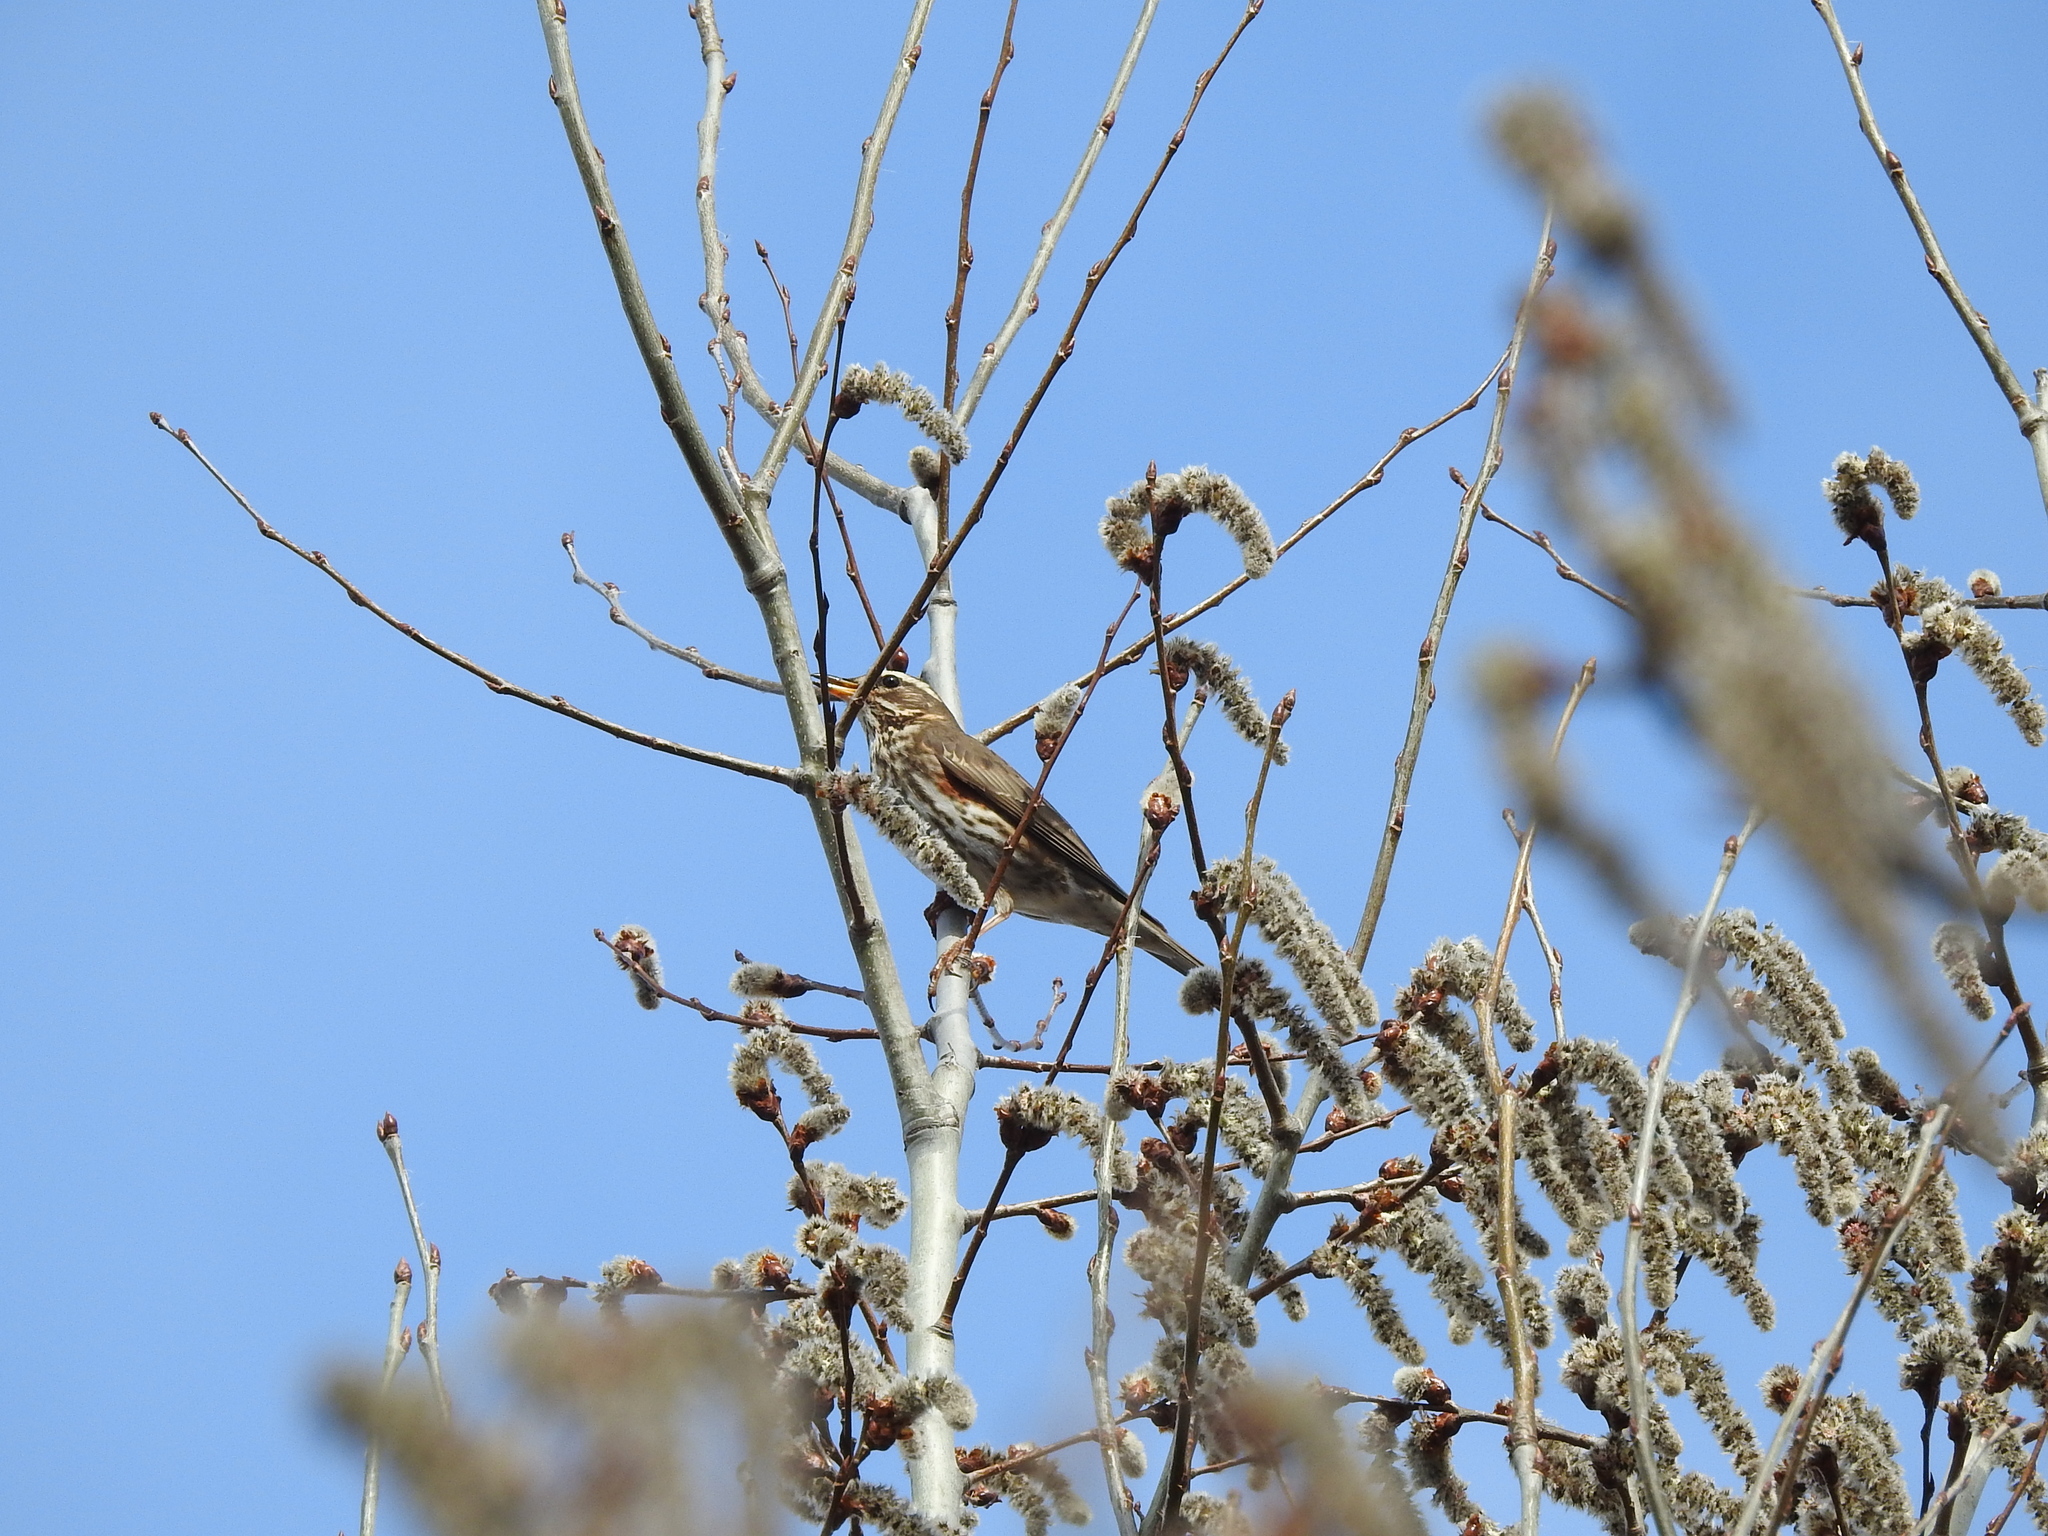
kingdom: Animalia
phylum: Chordata
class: Aves
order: Passeriformes
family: Turdidae
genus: Turdus
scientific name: Turdus iliacus
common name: Redwing
